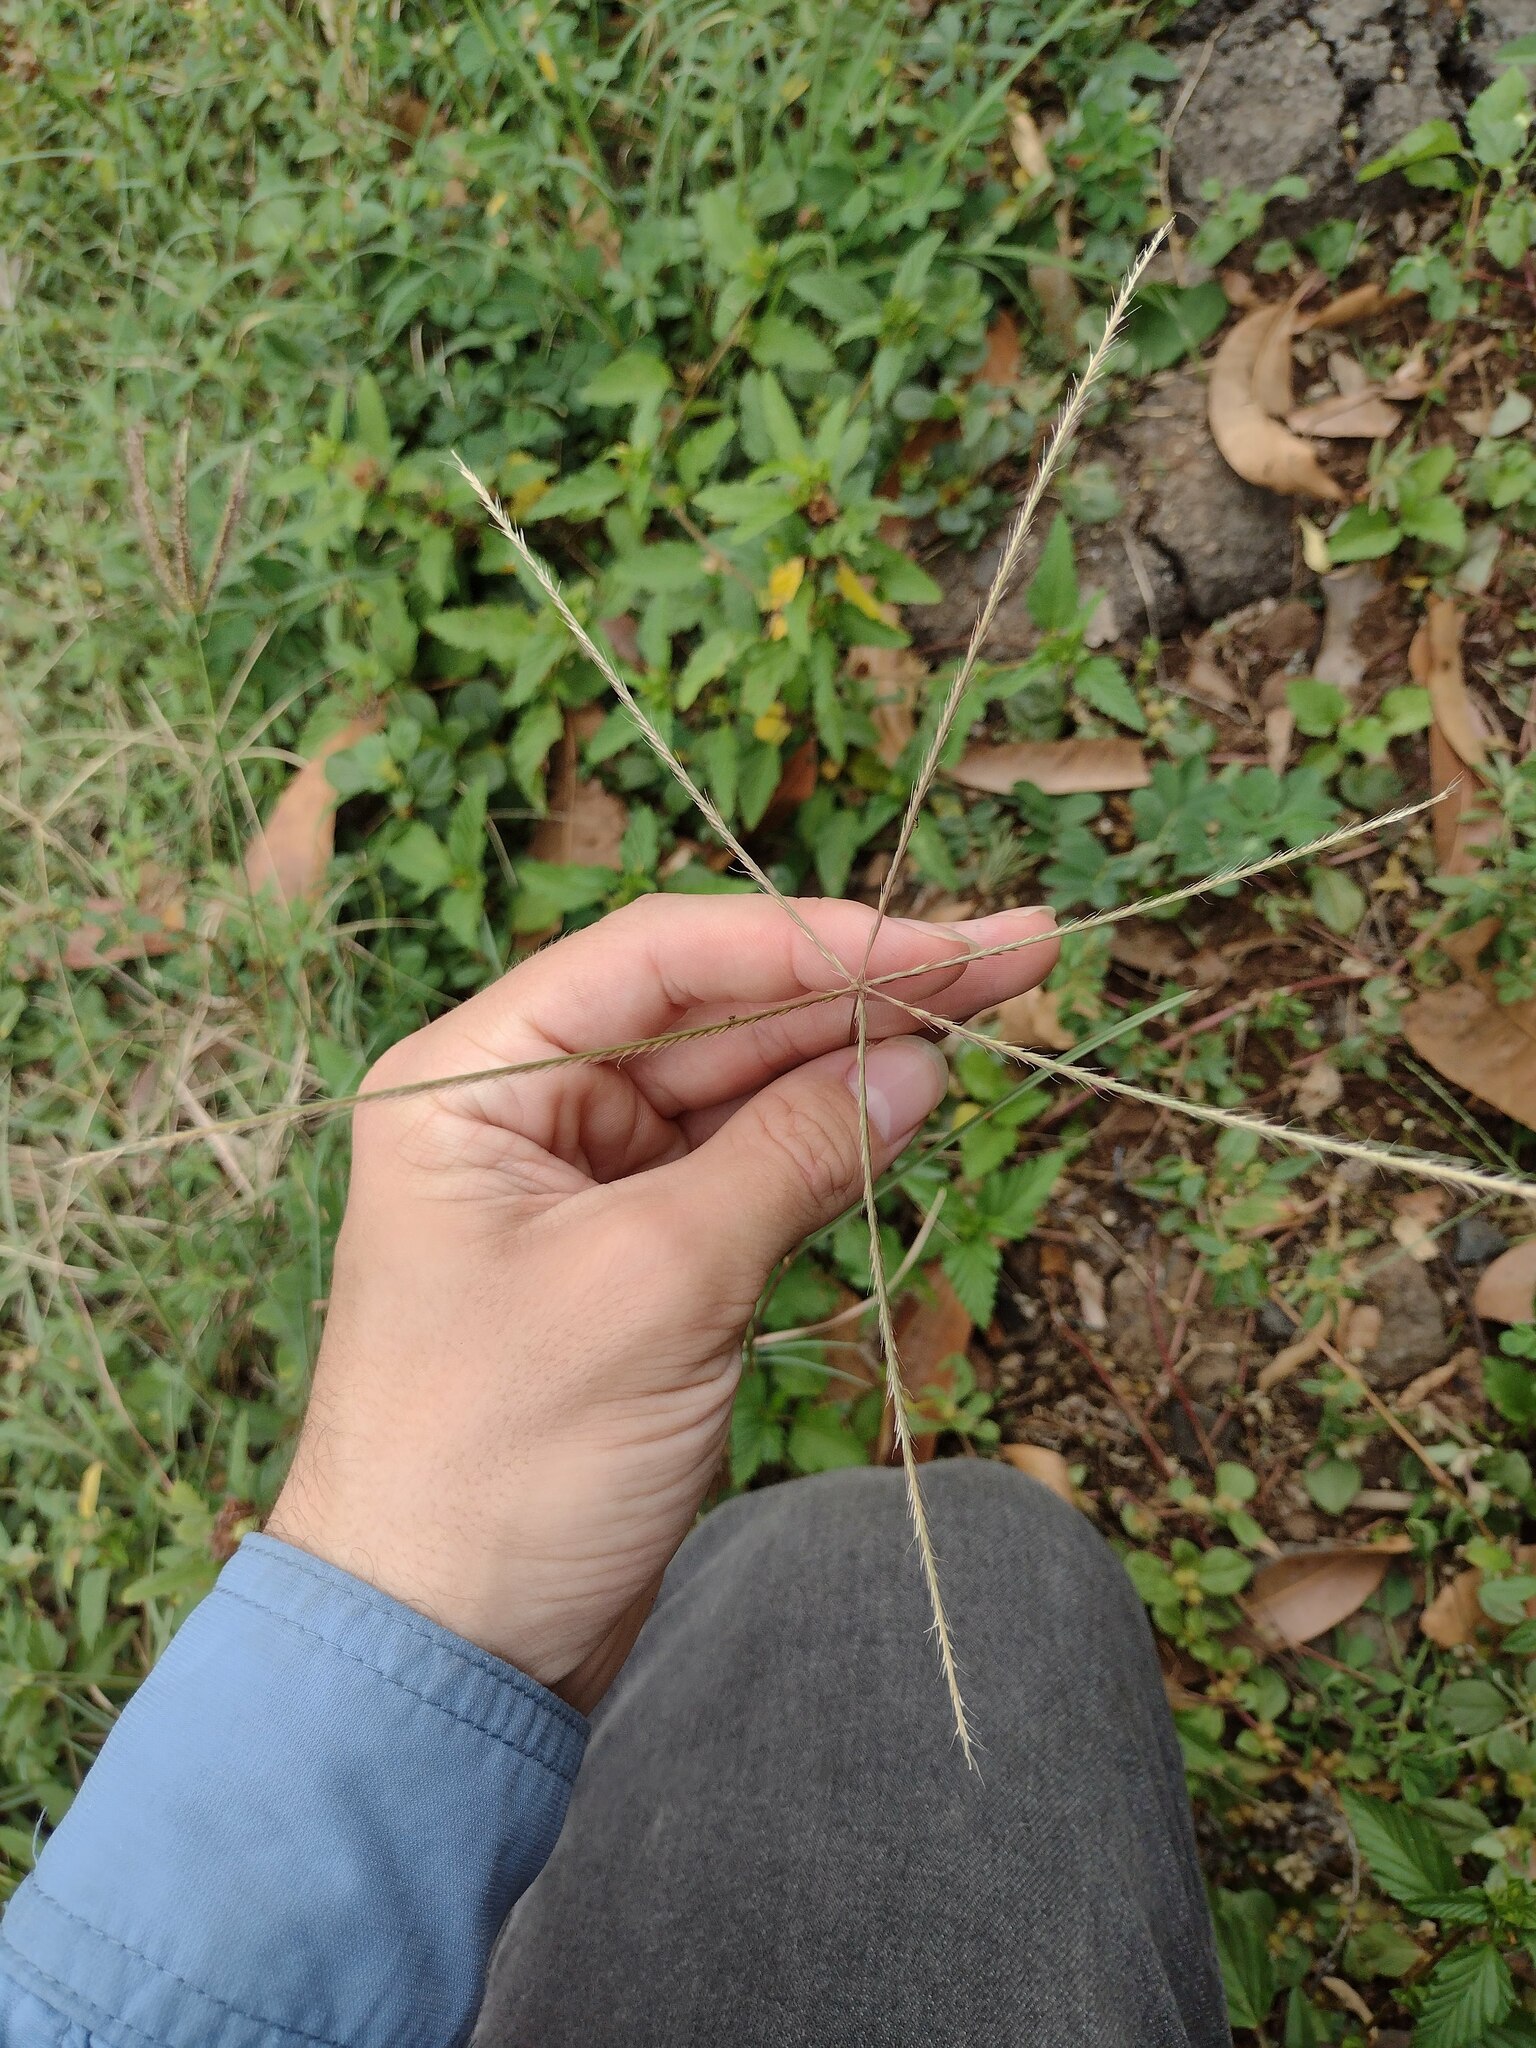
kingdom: Plantae
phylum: Tracheophyta
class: Liliopsida
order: Poales
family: Poaceae
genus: Chloris
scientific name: Chloris divaricata
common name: Spreading windmill grass
